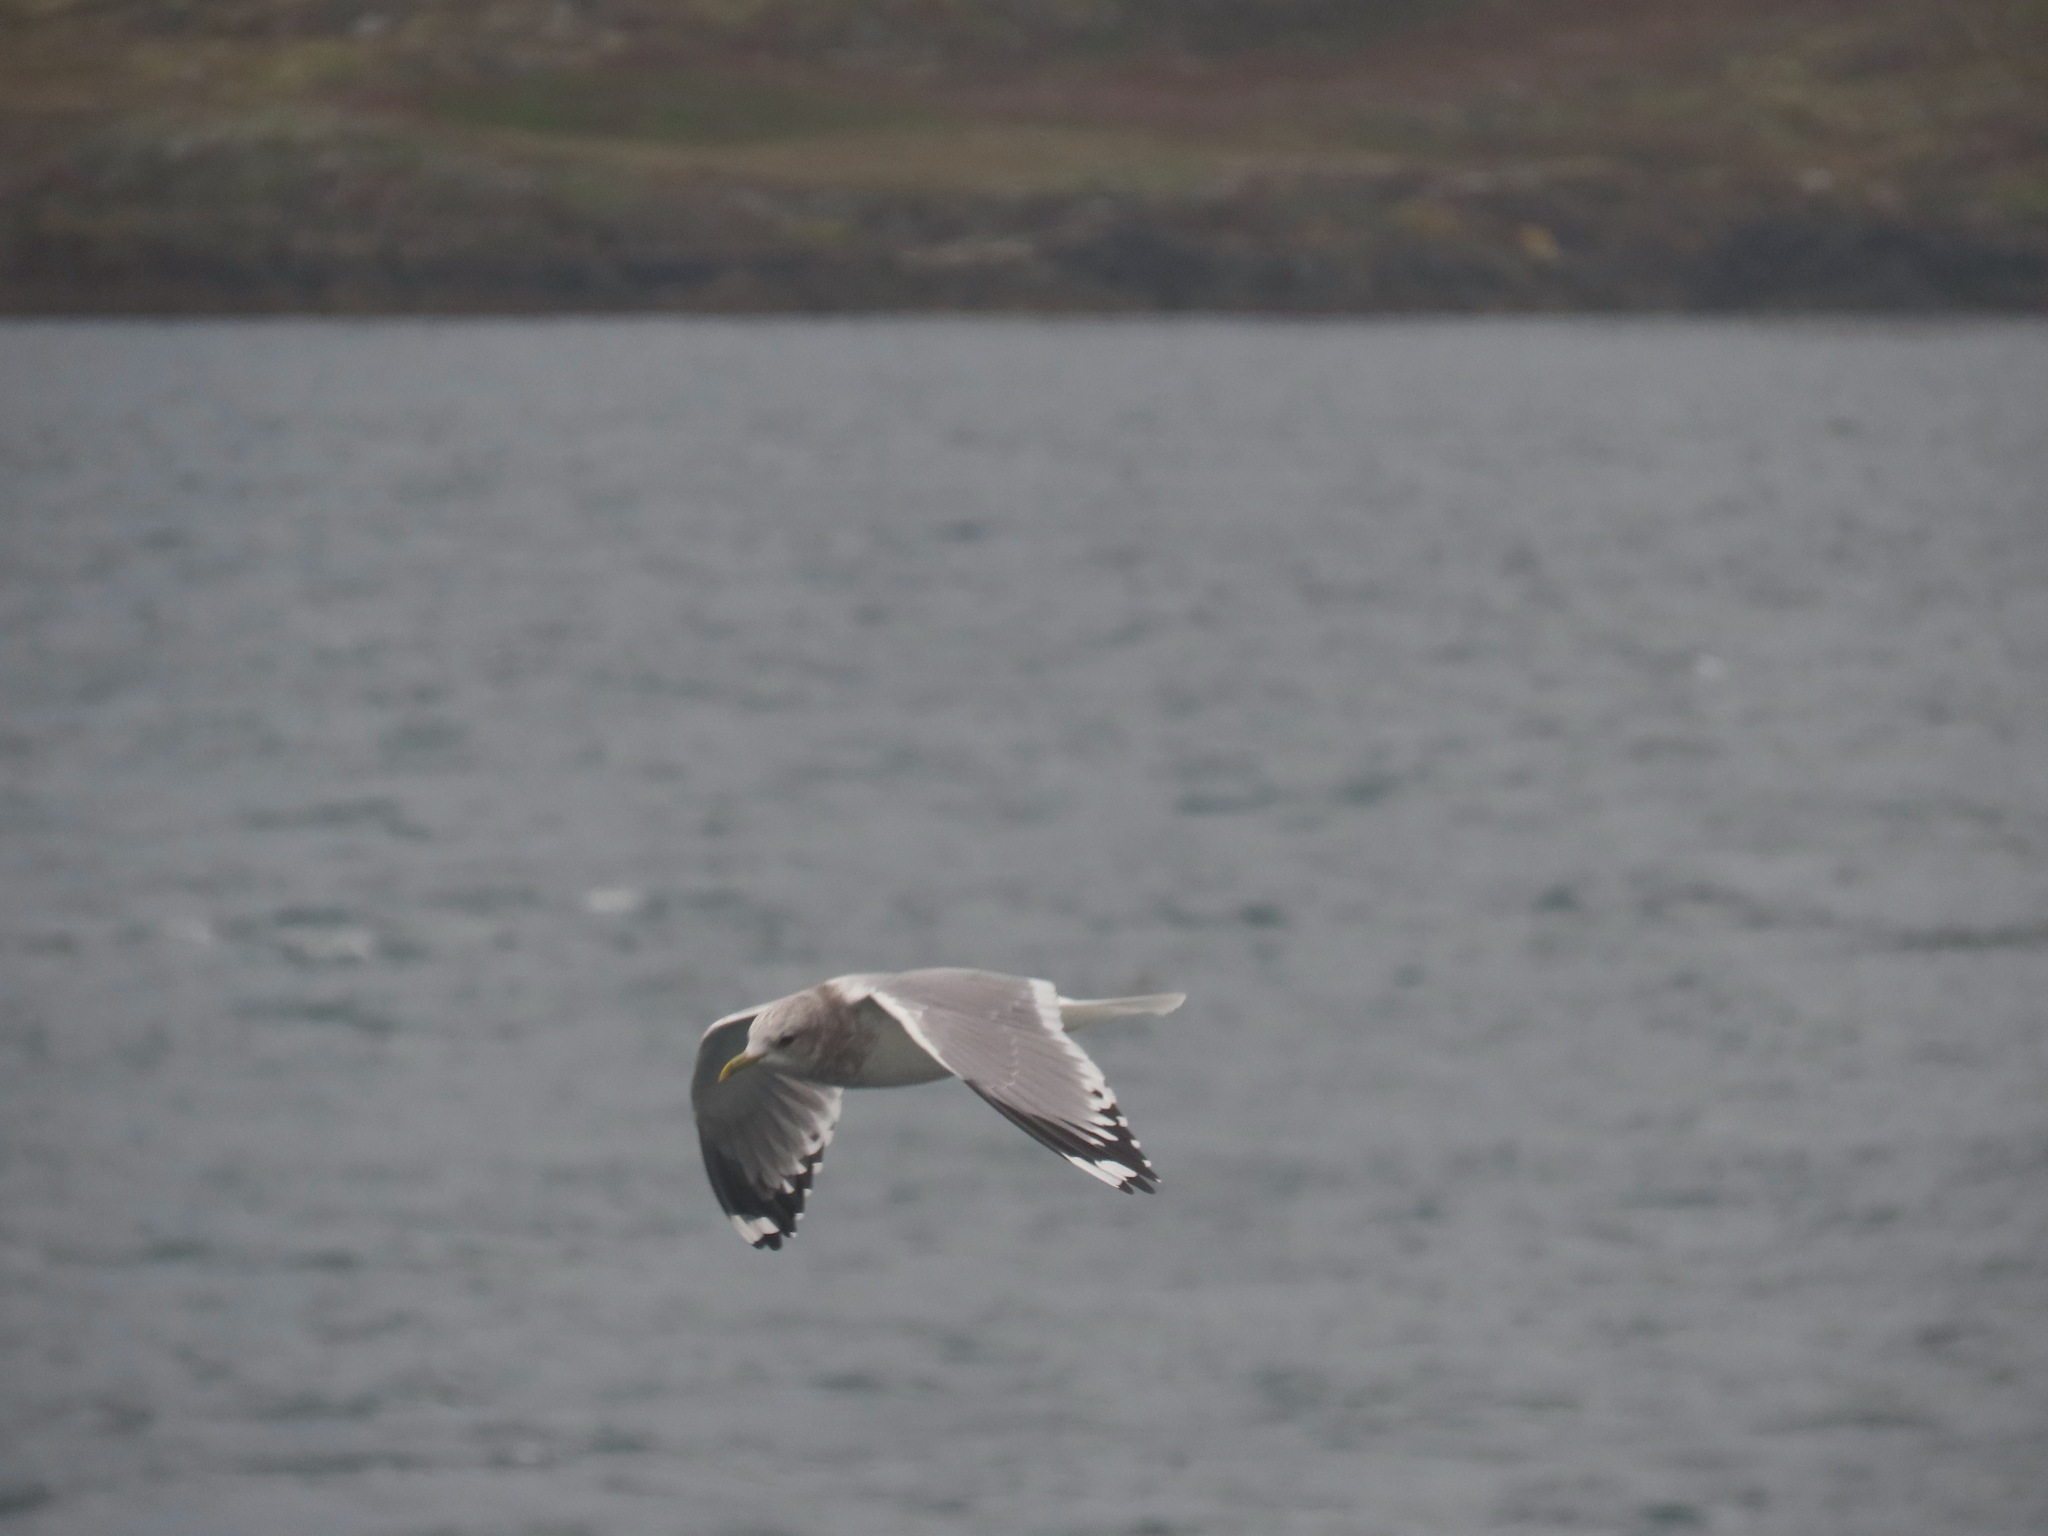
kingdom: Animalia
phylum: Chordata
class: Aves
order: Charadriiformes
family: Laridae
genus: Larus
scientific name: Larus brachyrhynchus
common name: Short-billed gull
